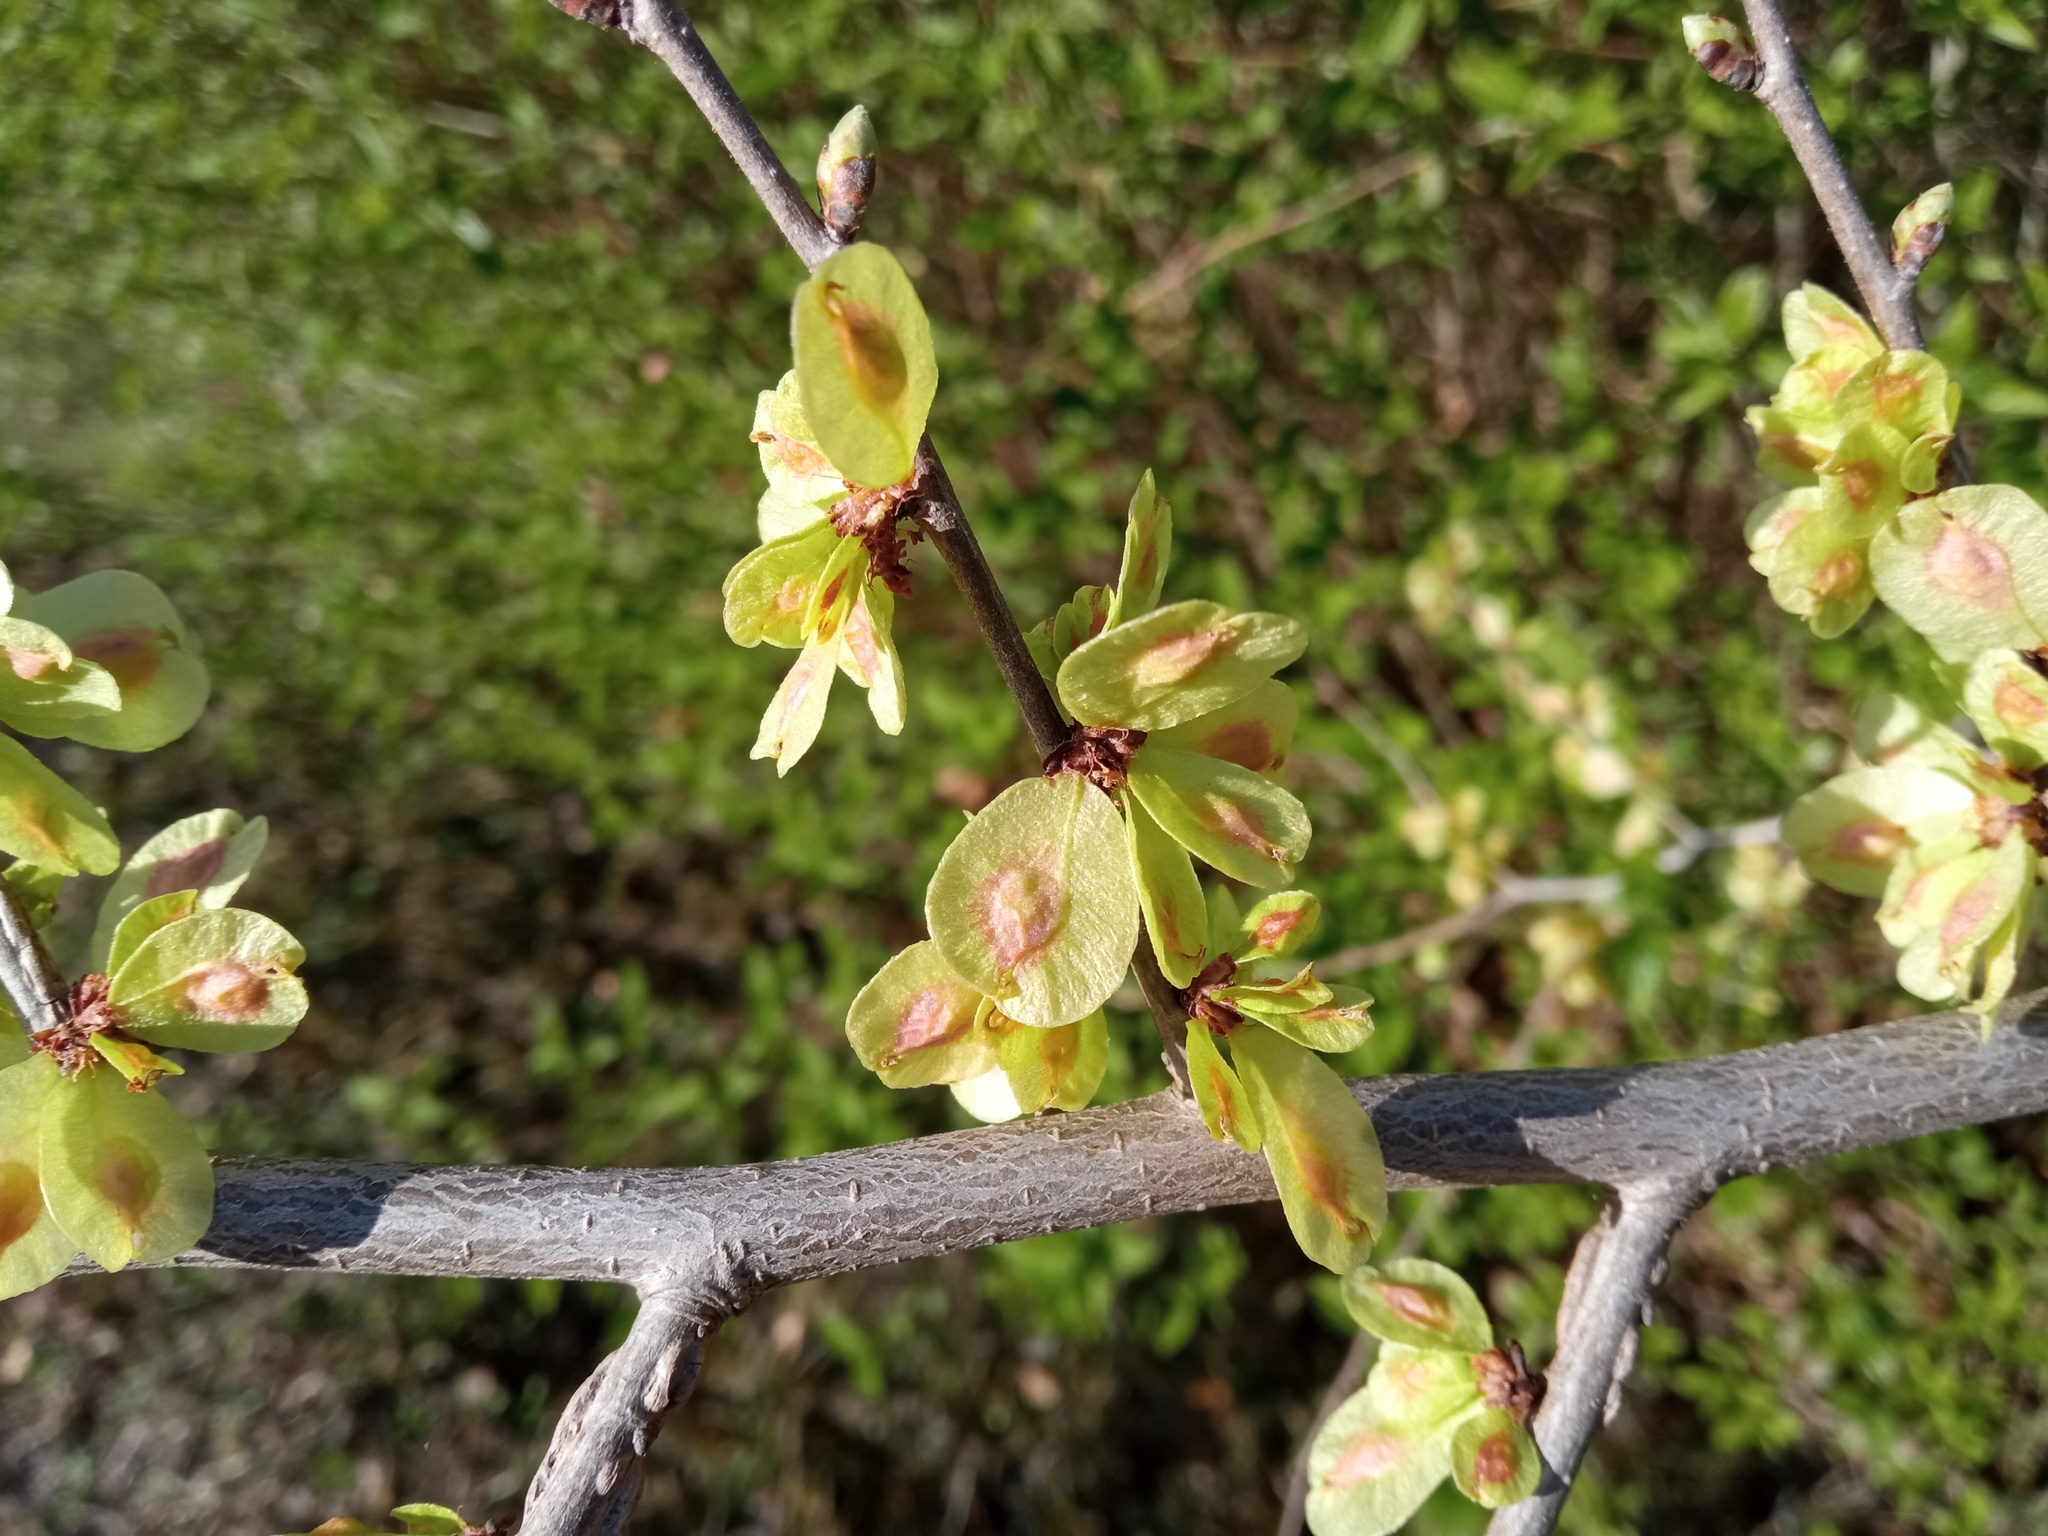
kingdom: Plantae
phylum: Tracheophyta
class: Magnoliopsida
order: Rosales
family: Ulmaceae
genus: Ulmus
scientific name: Ulmus minor
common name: Small-leaved elm
